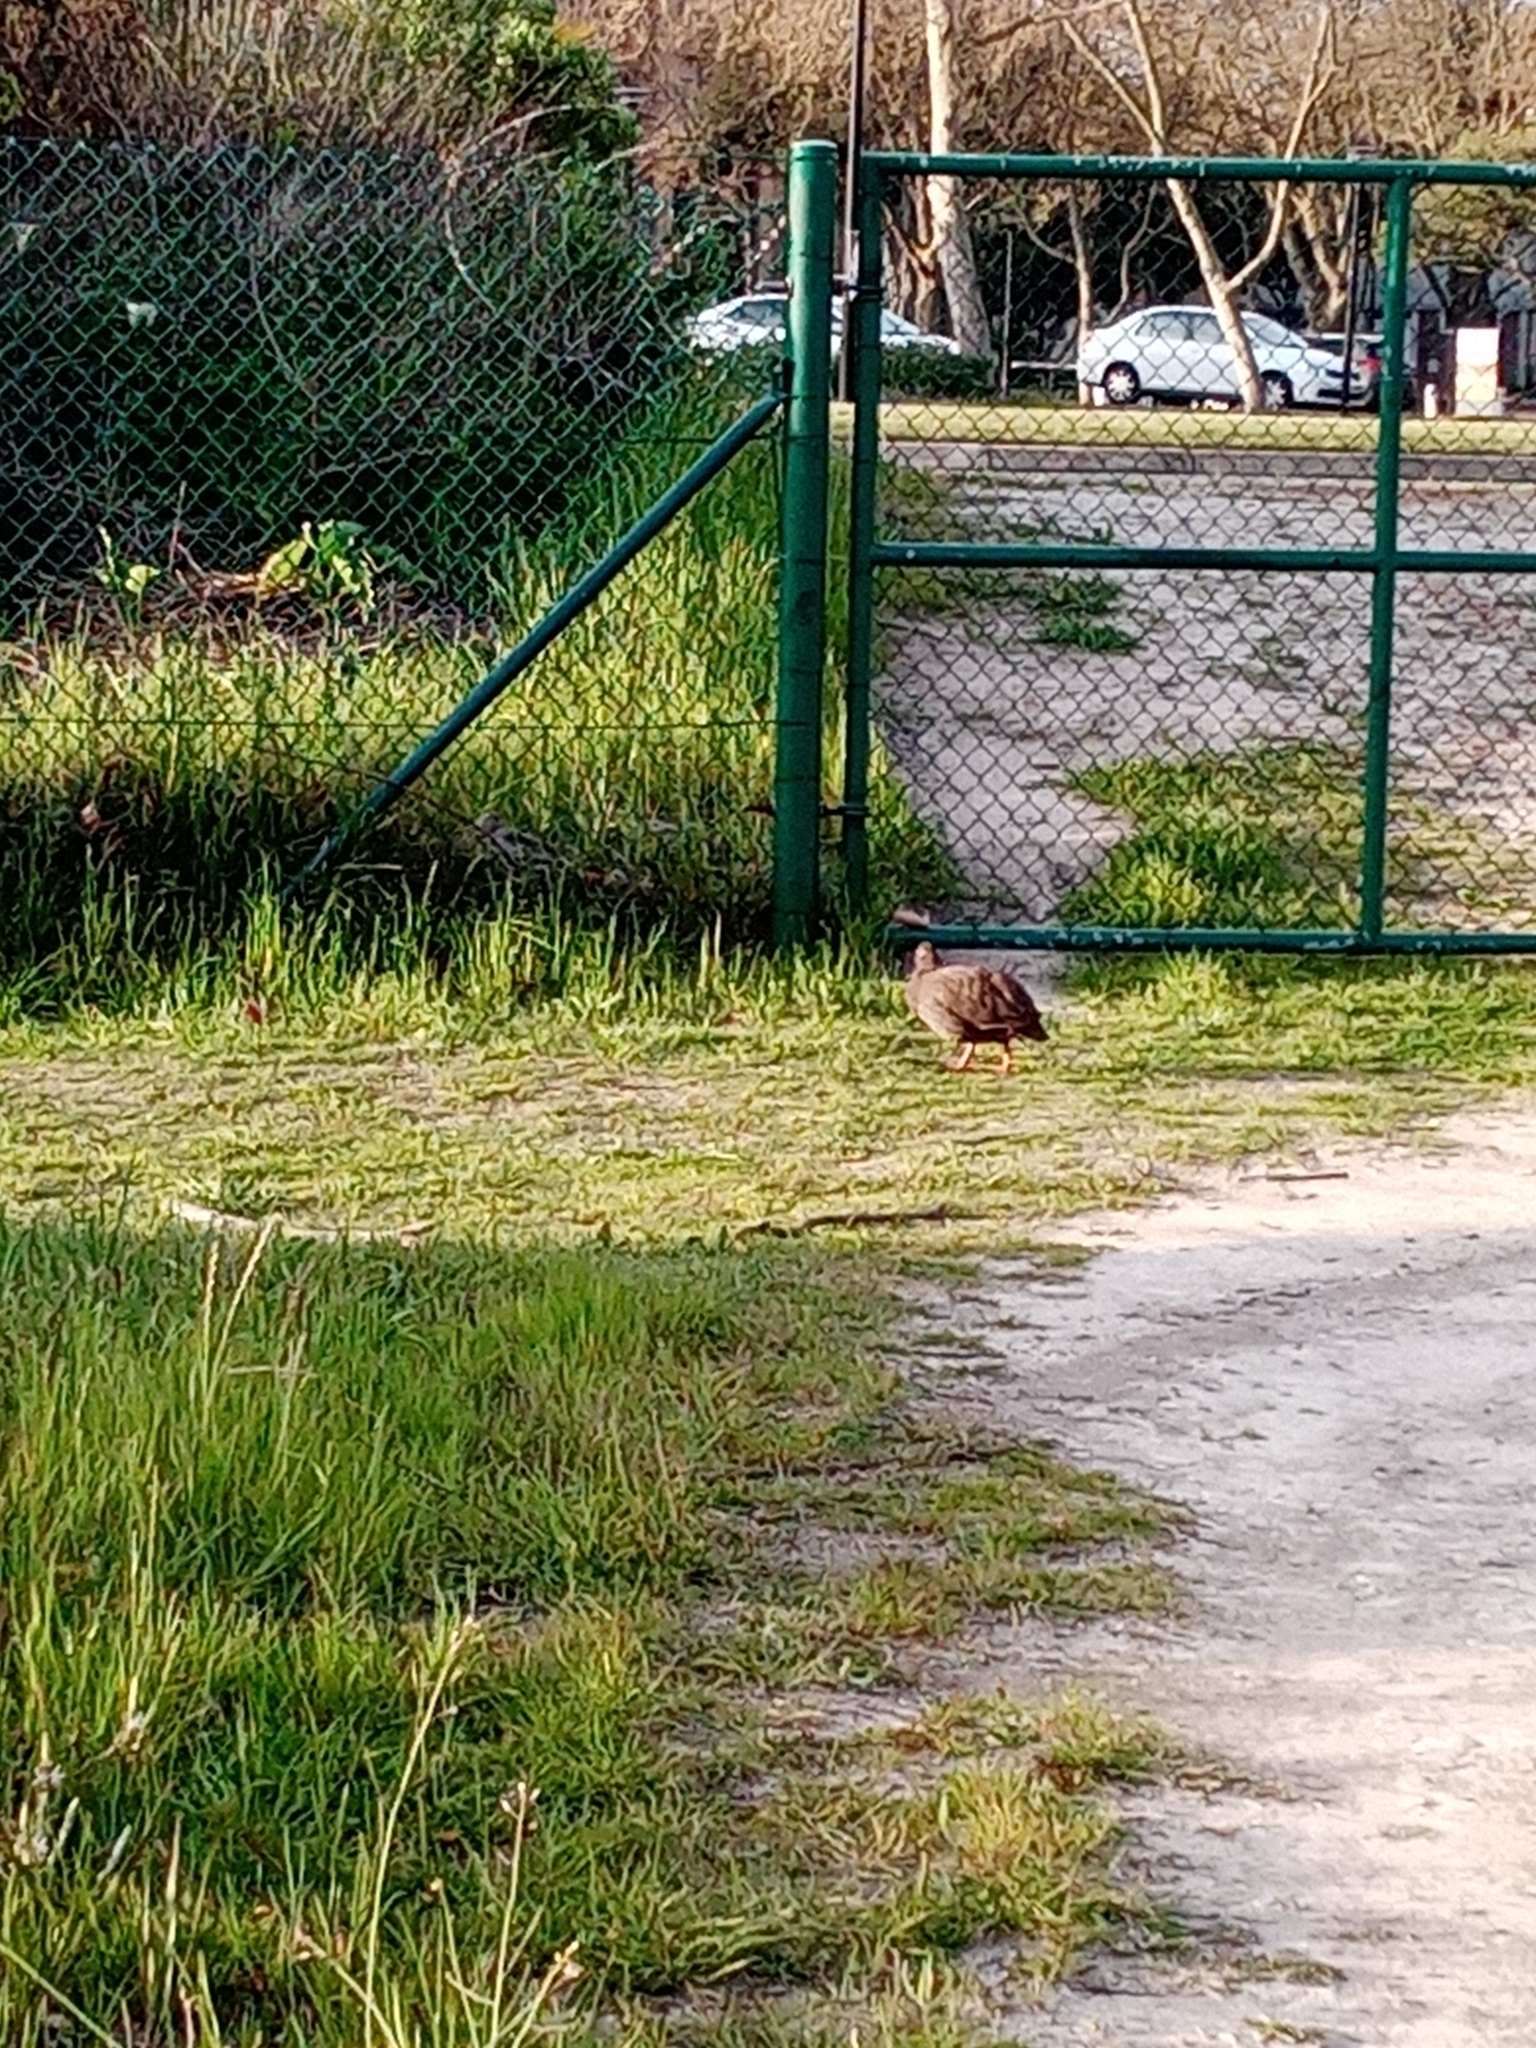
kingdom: Animalia
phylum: Chordata
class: Aves
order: Galliformes
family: Phasianidae
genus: Pternistis
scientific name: Pternistis capensis
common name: Cape spurfowl
